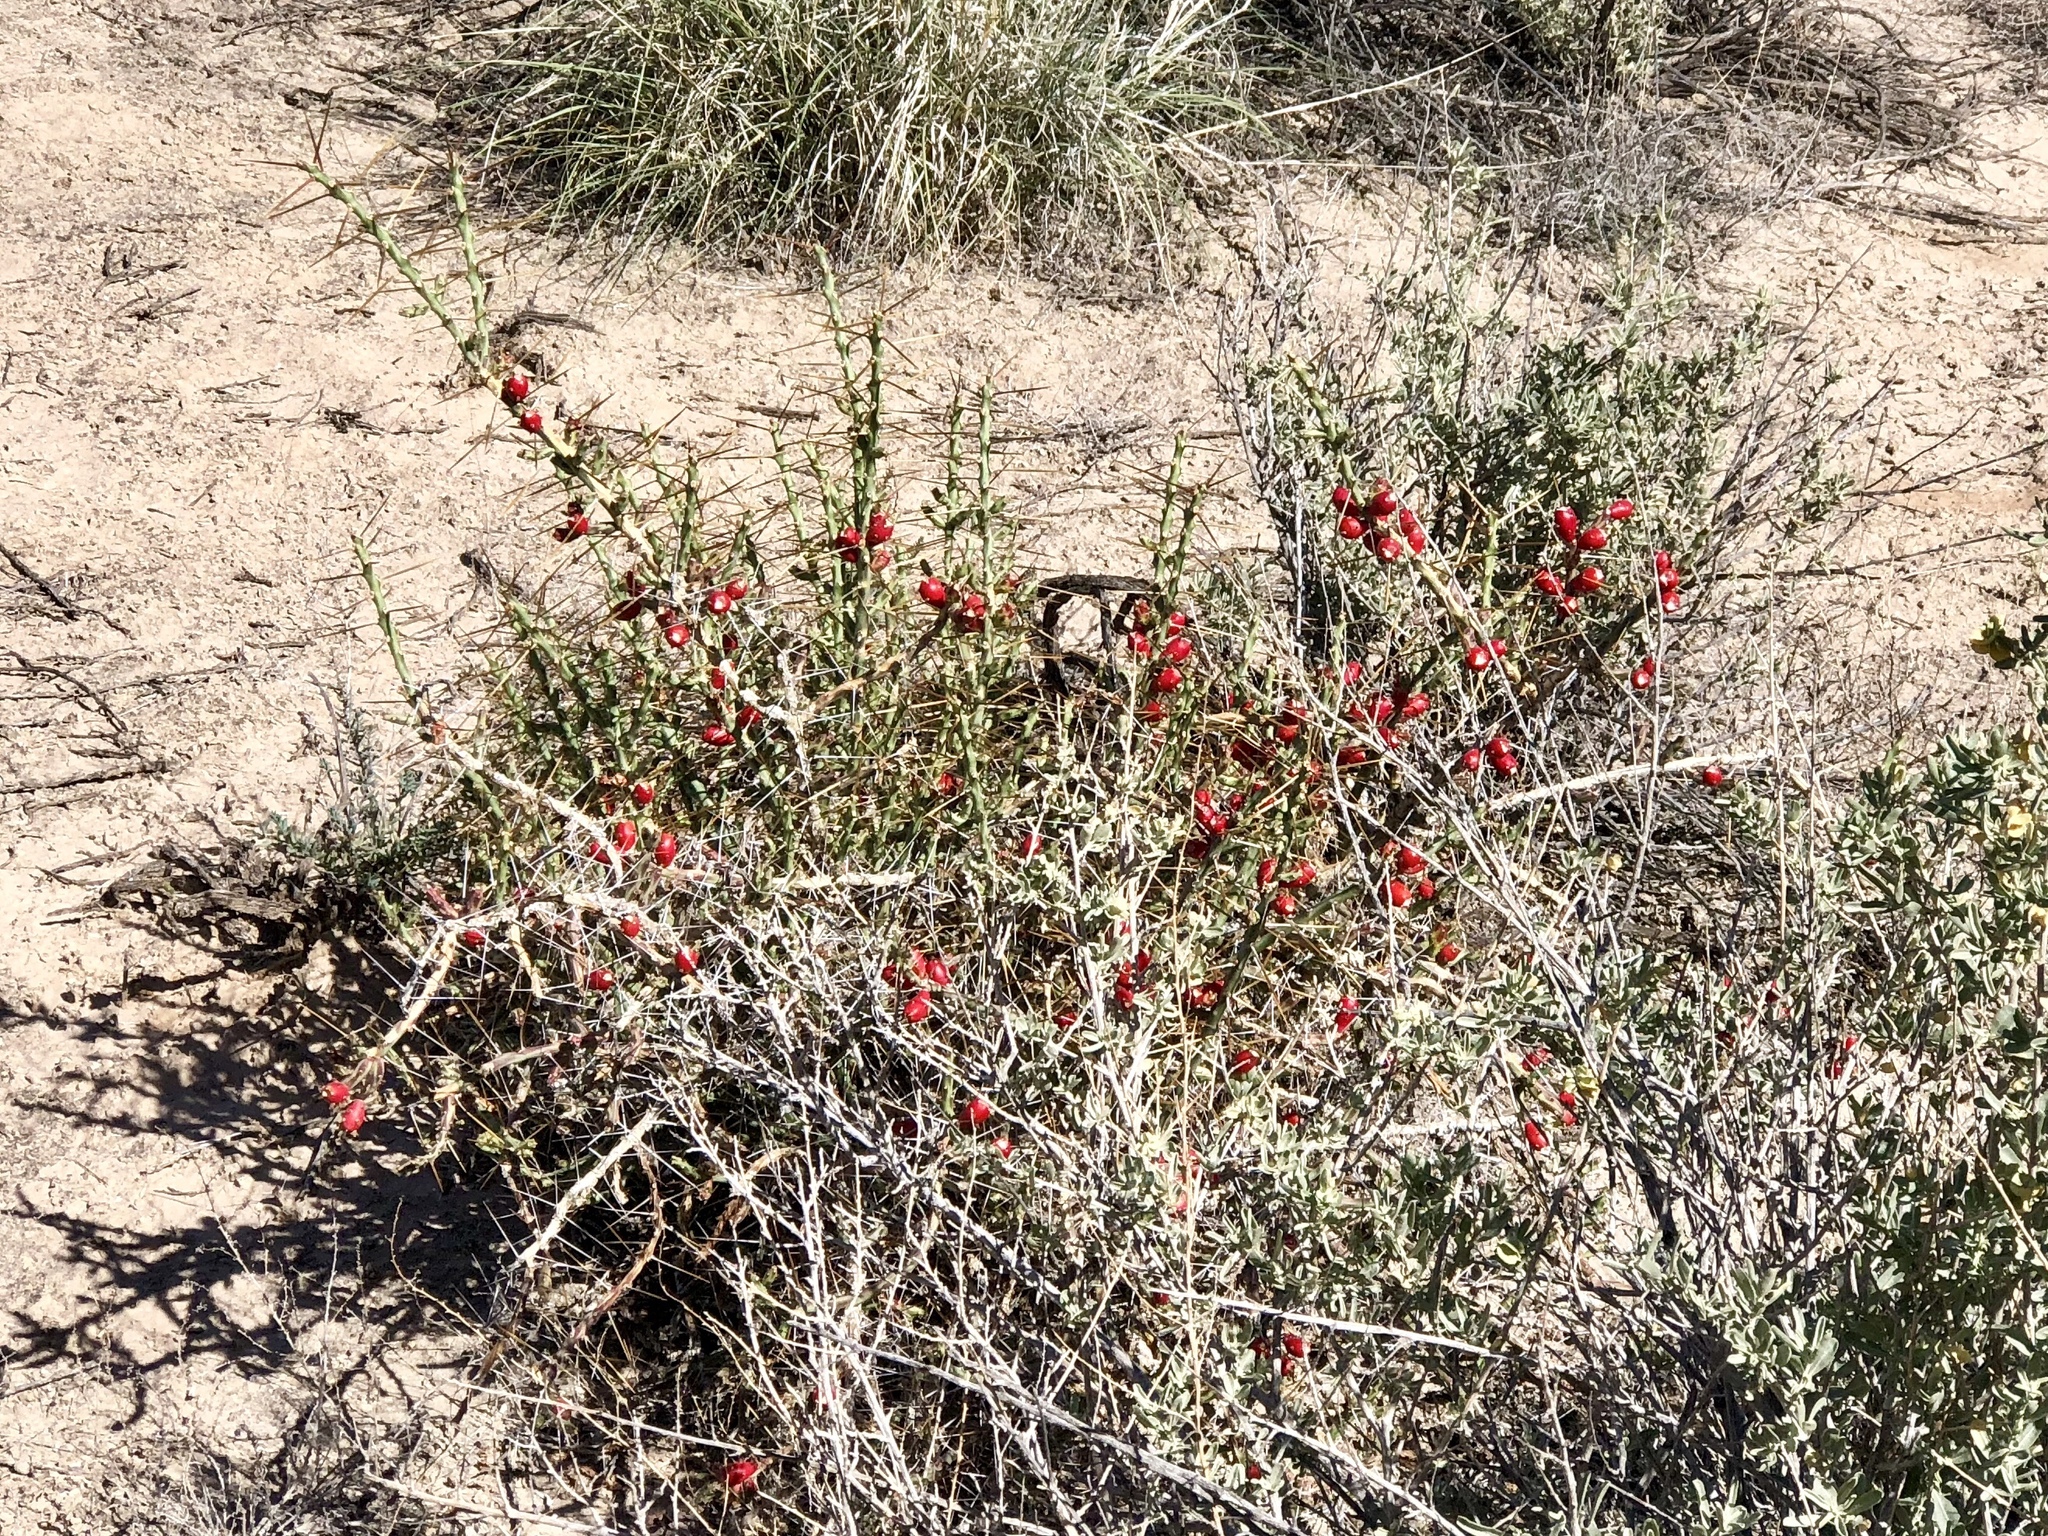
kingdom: Plantae
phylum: Tracheophyta
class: Magnoliopsida
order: Caryophyllales
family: Cactaceae
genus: Cylindropuntia
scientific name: Cylindropuntia leptocaulis
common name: Christmas cactus
